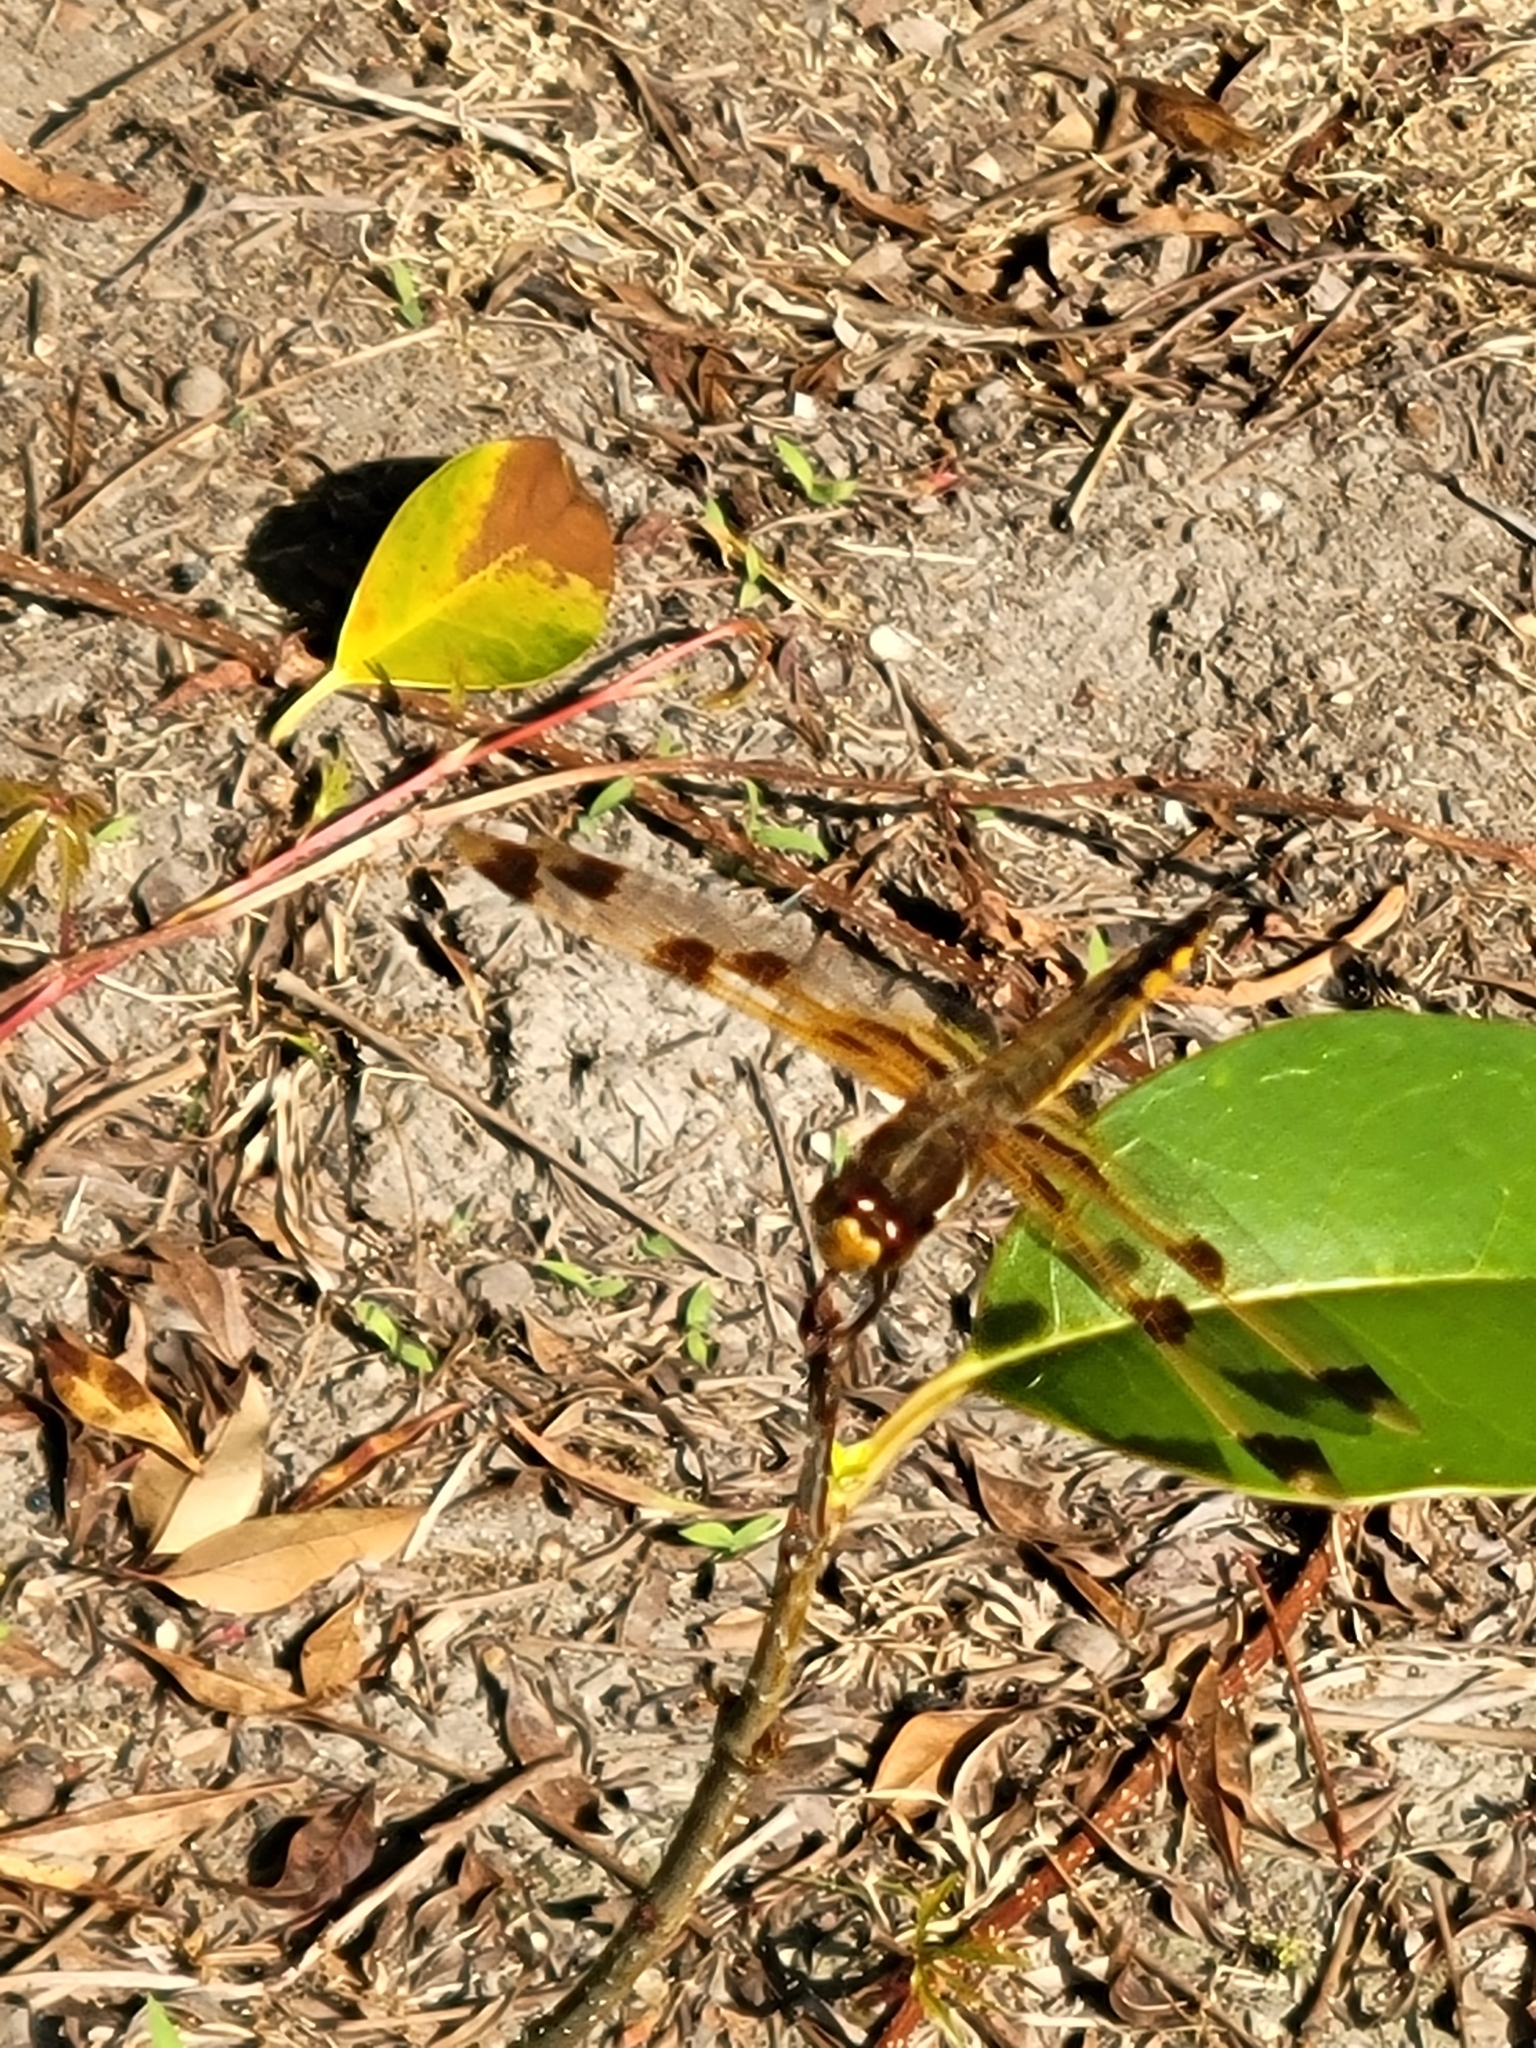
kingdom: Animalia
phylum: Arthropoda
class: Insecta
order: Odonata
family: Libellulidae
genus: Libellula
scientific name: Libellula semifasciata
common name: Painted skimmer
